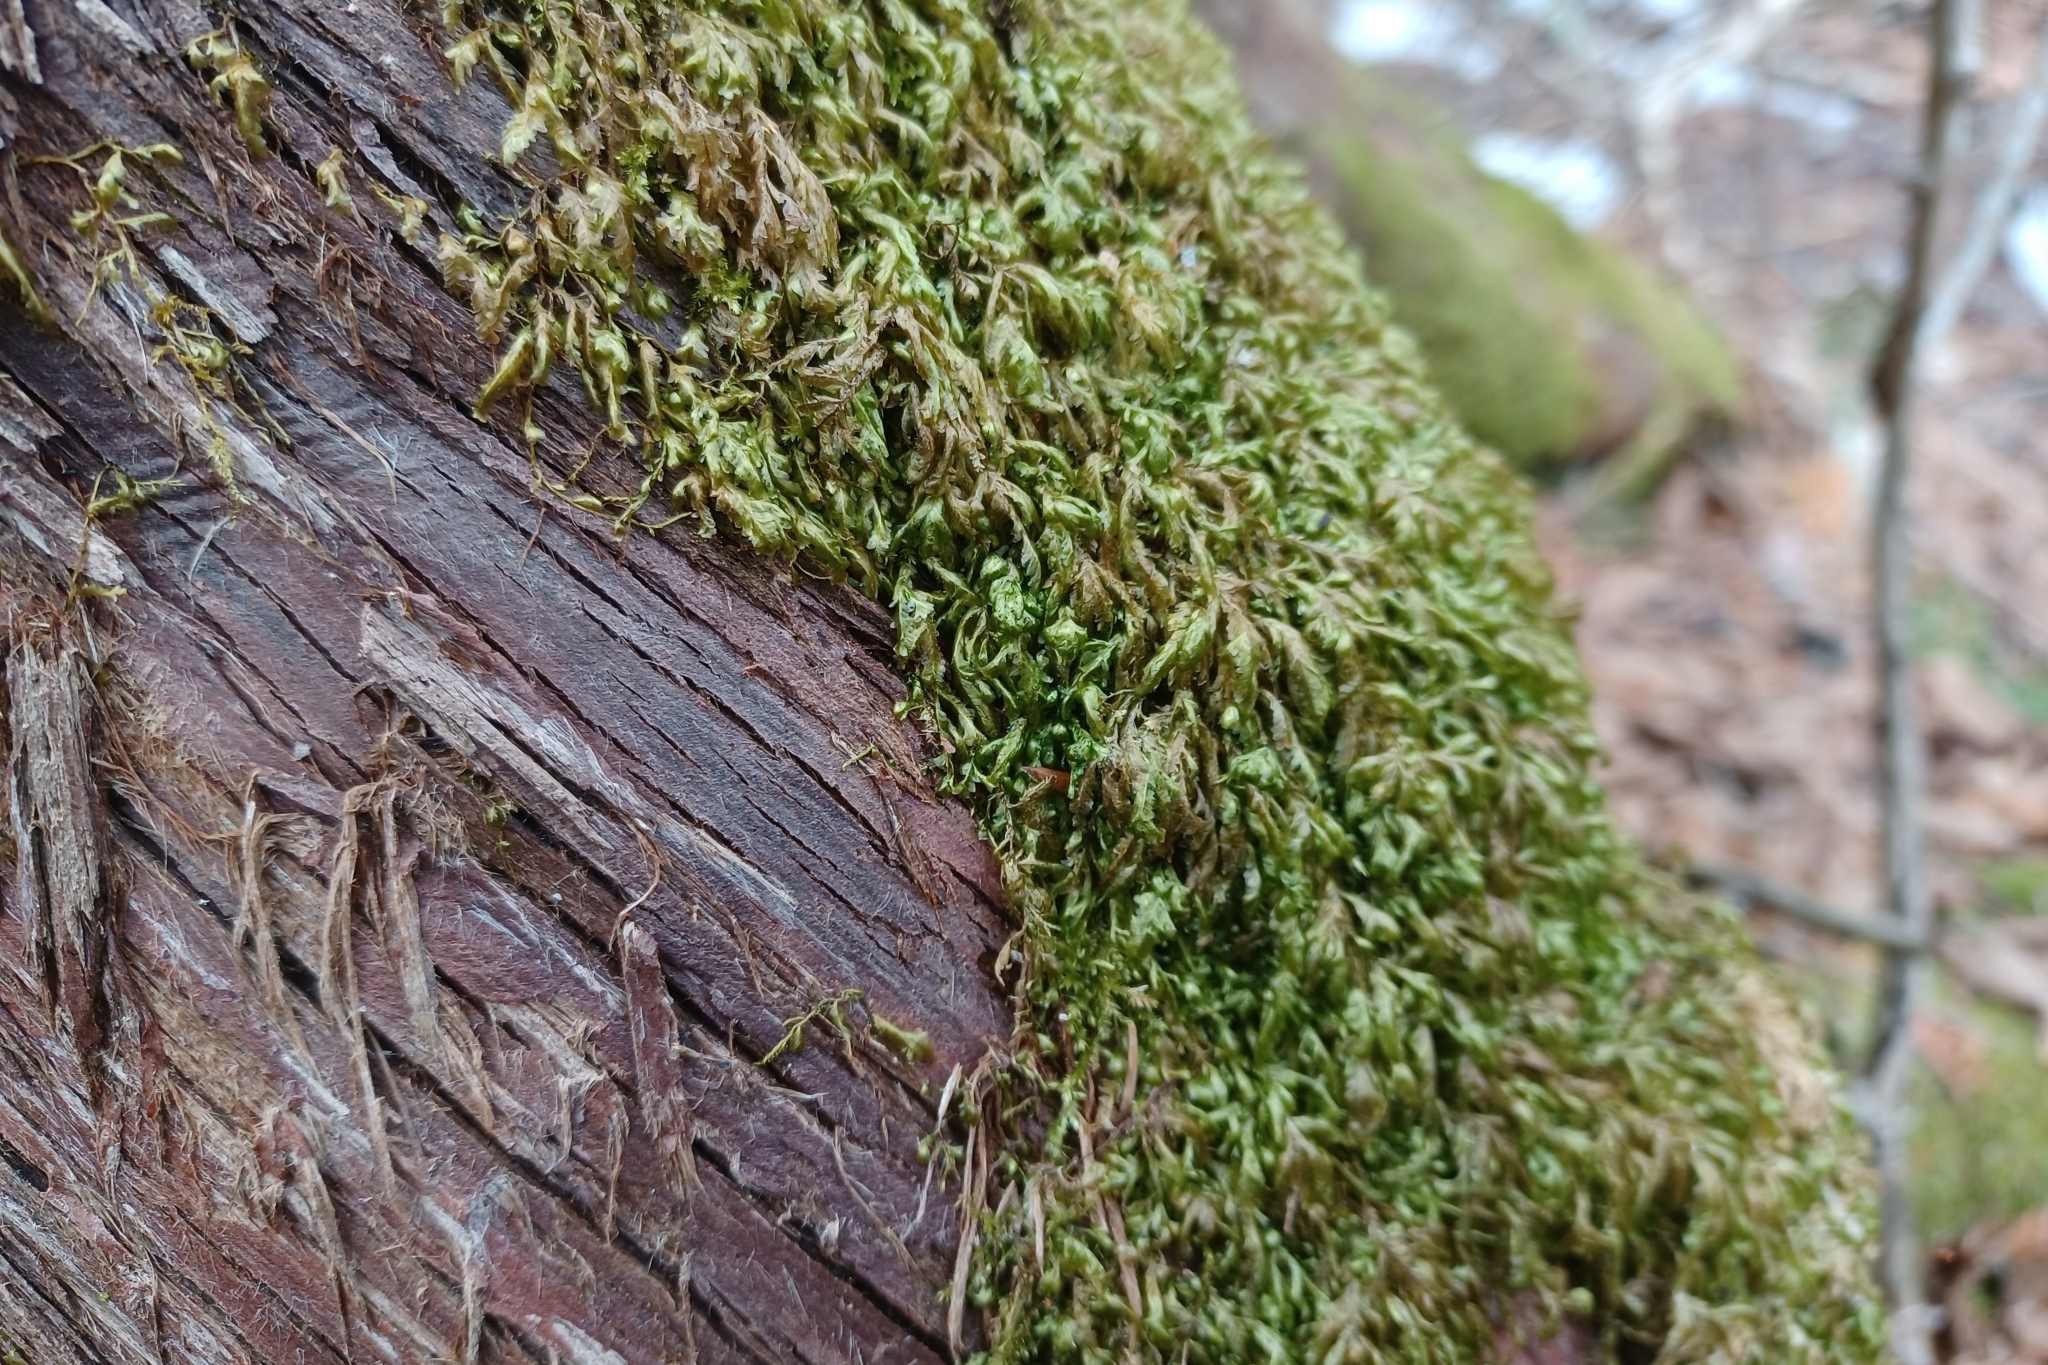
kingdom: Plantae
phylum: Bryophyta
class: Bryopsida
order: Hypnales
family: Neckeraceae
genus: Homalia
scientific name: Homalia trichomanoides
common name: Lime homalia moss
